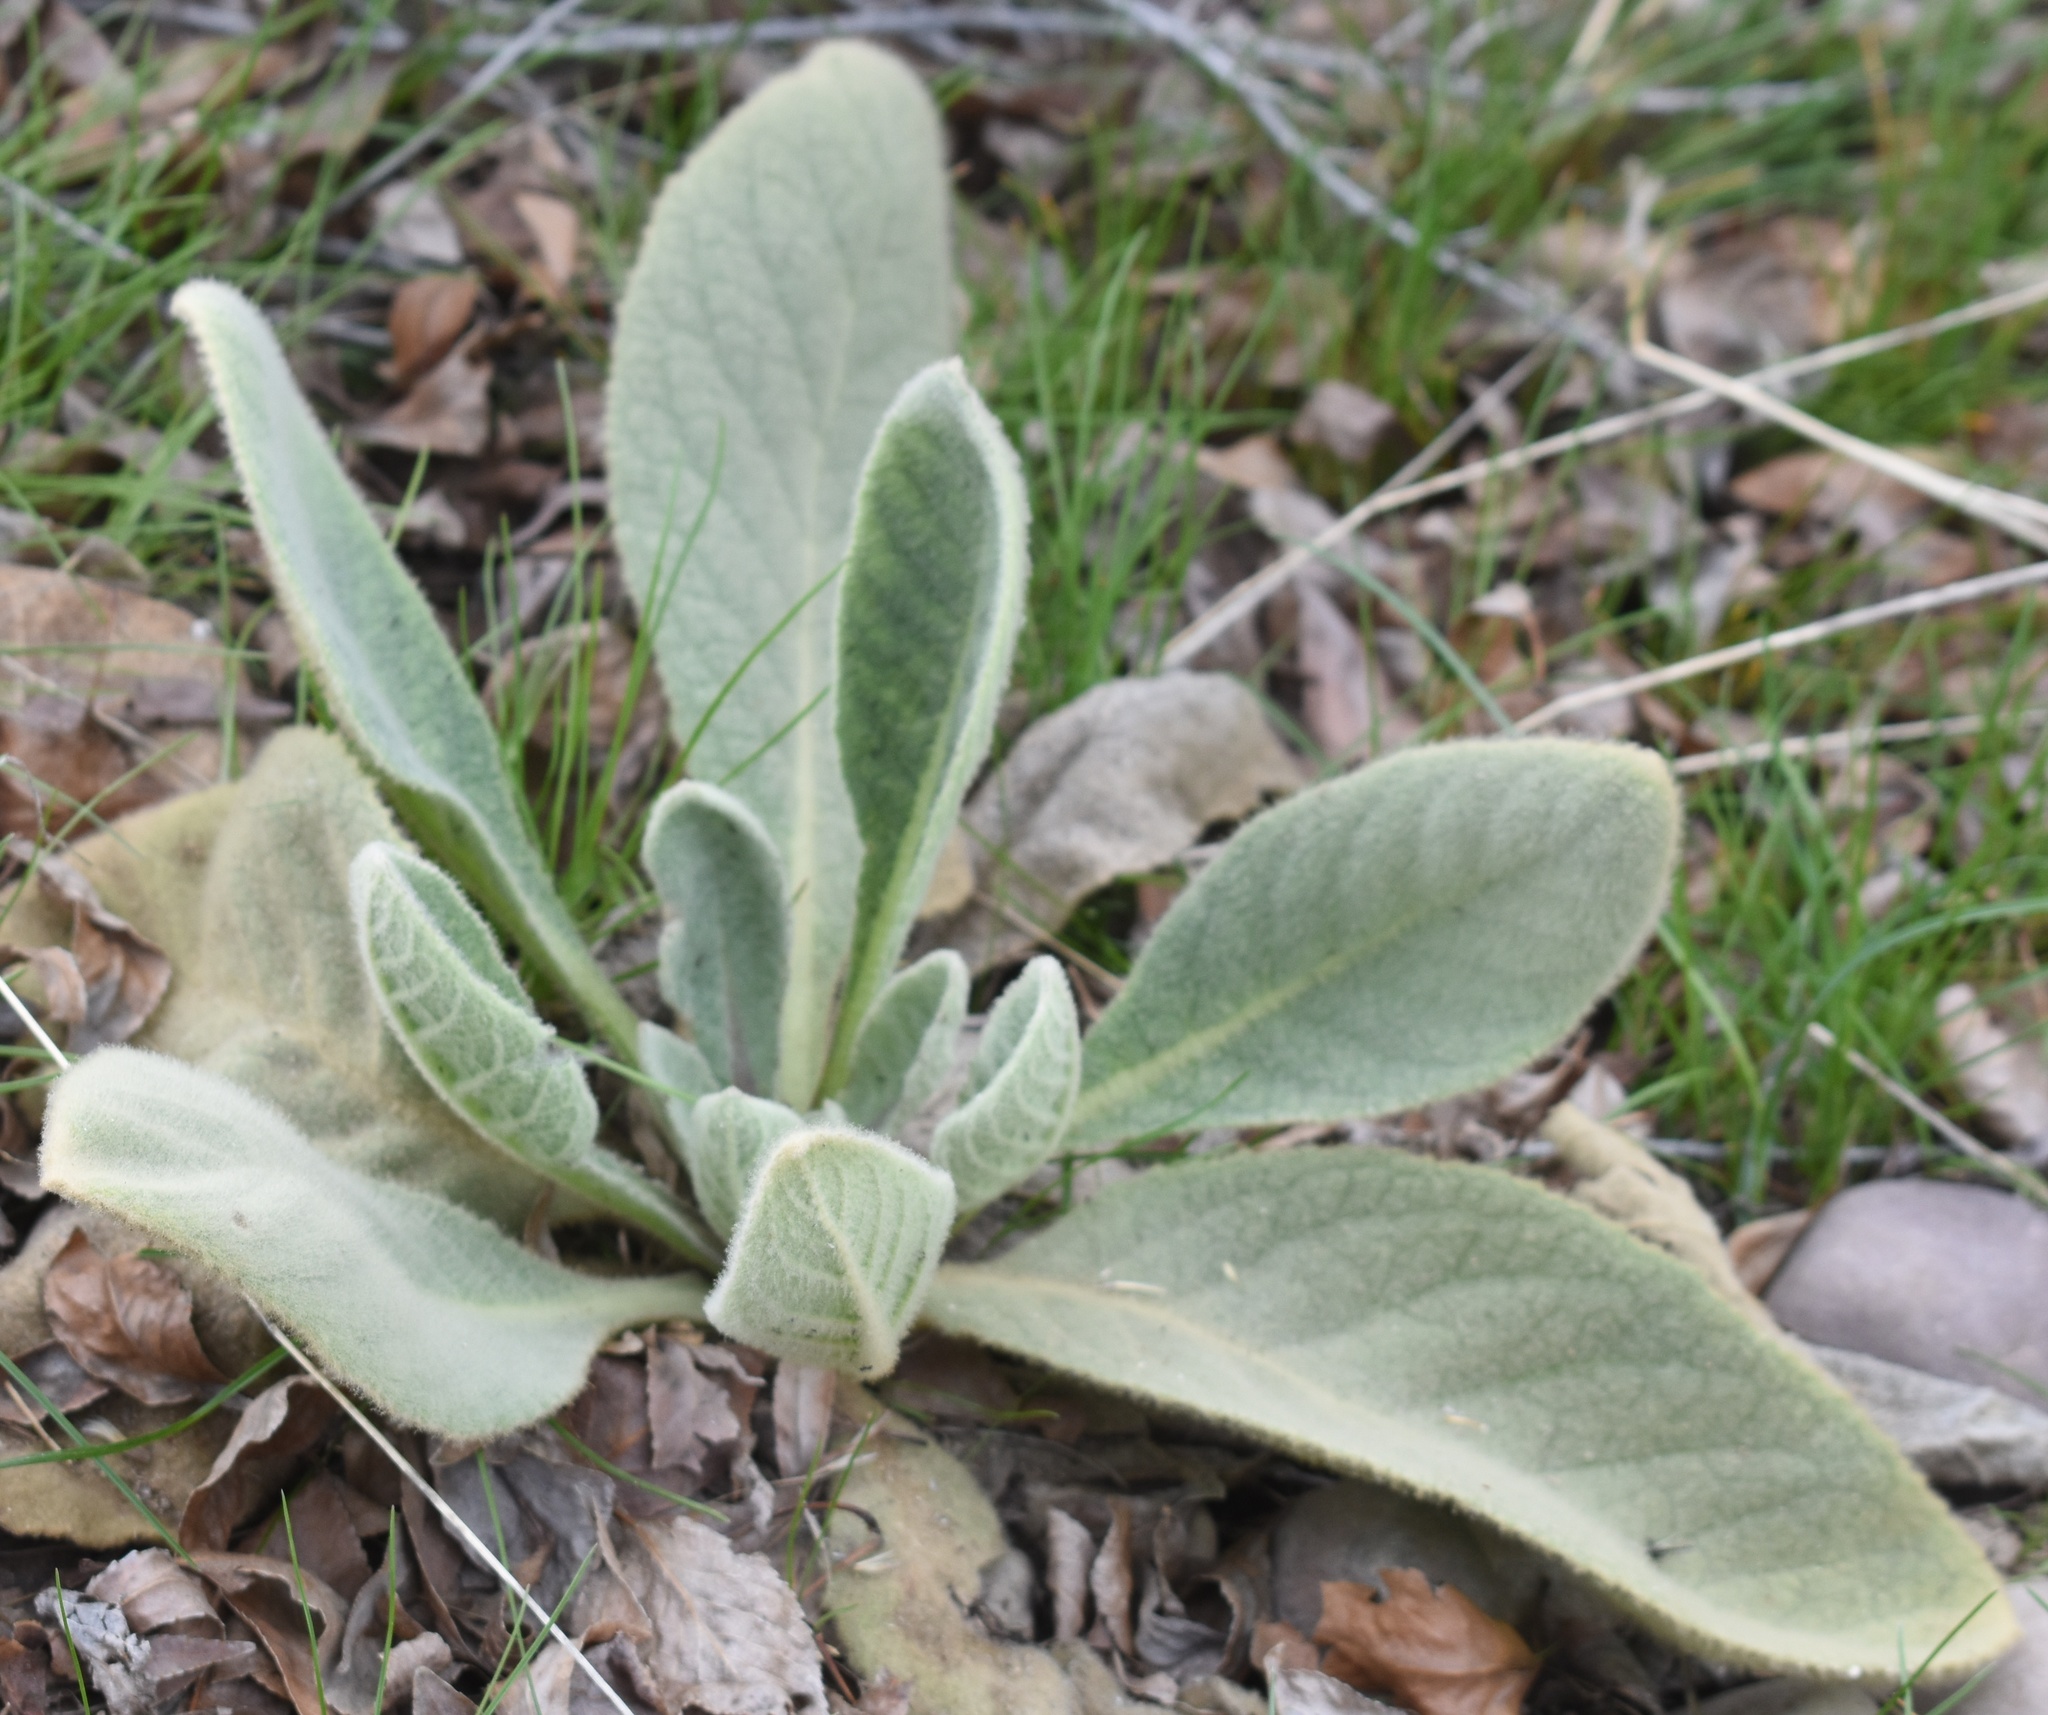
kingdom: Plantae
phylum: Tracheophyta
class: Magnoliopsida
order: Lamiales
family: Scrophulariaceae
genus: Verbascum
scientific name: Verbascum thapsus
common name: Common mullein
